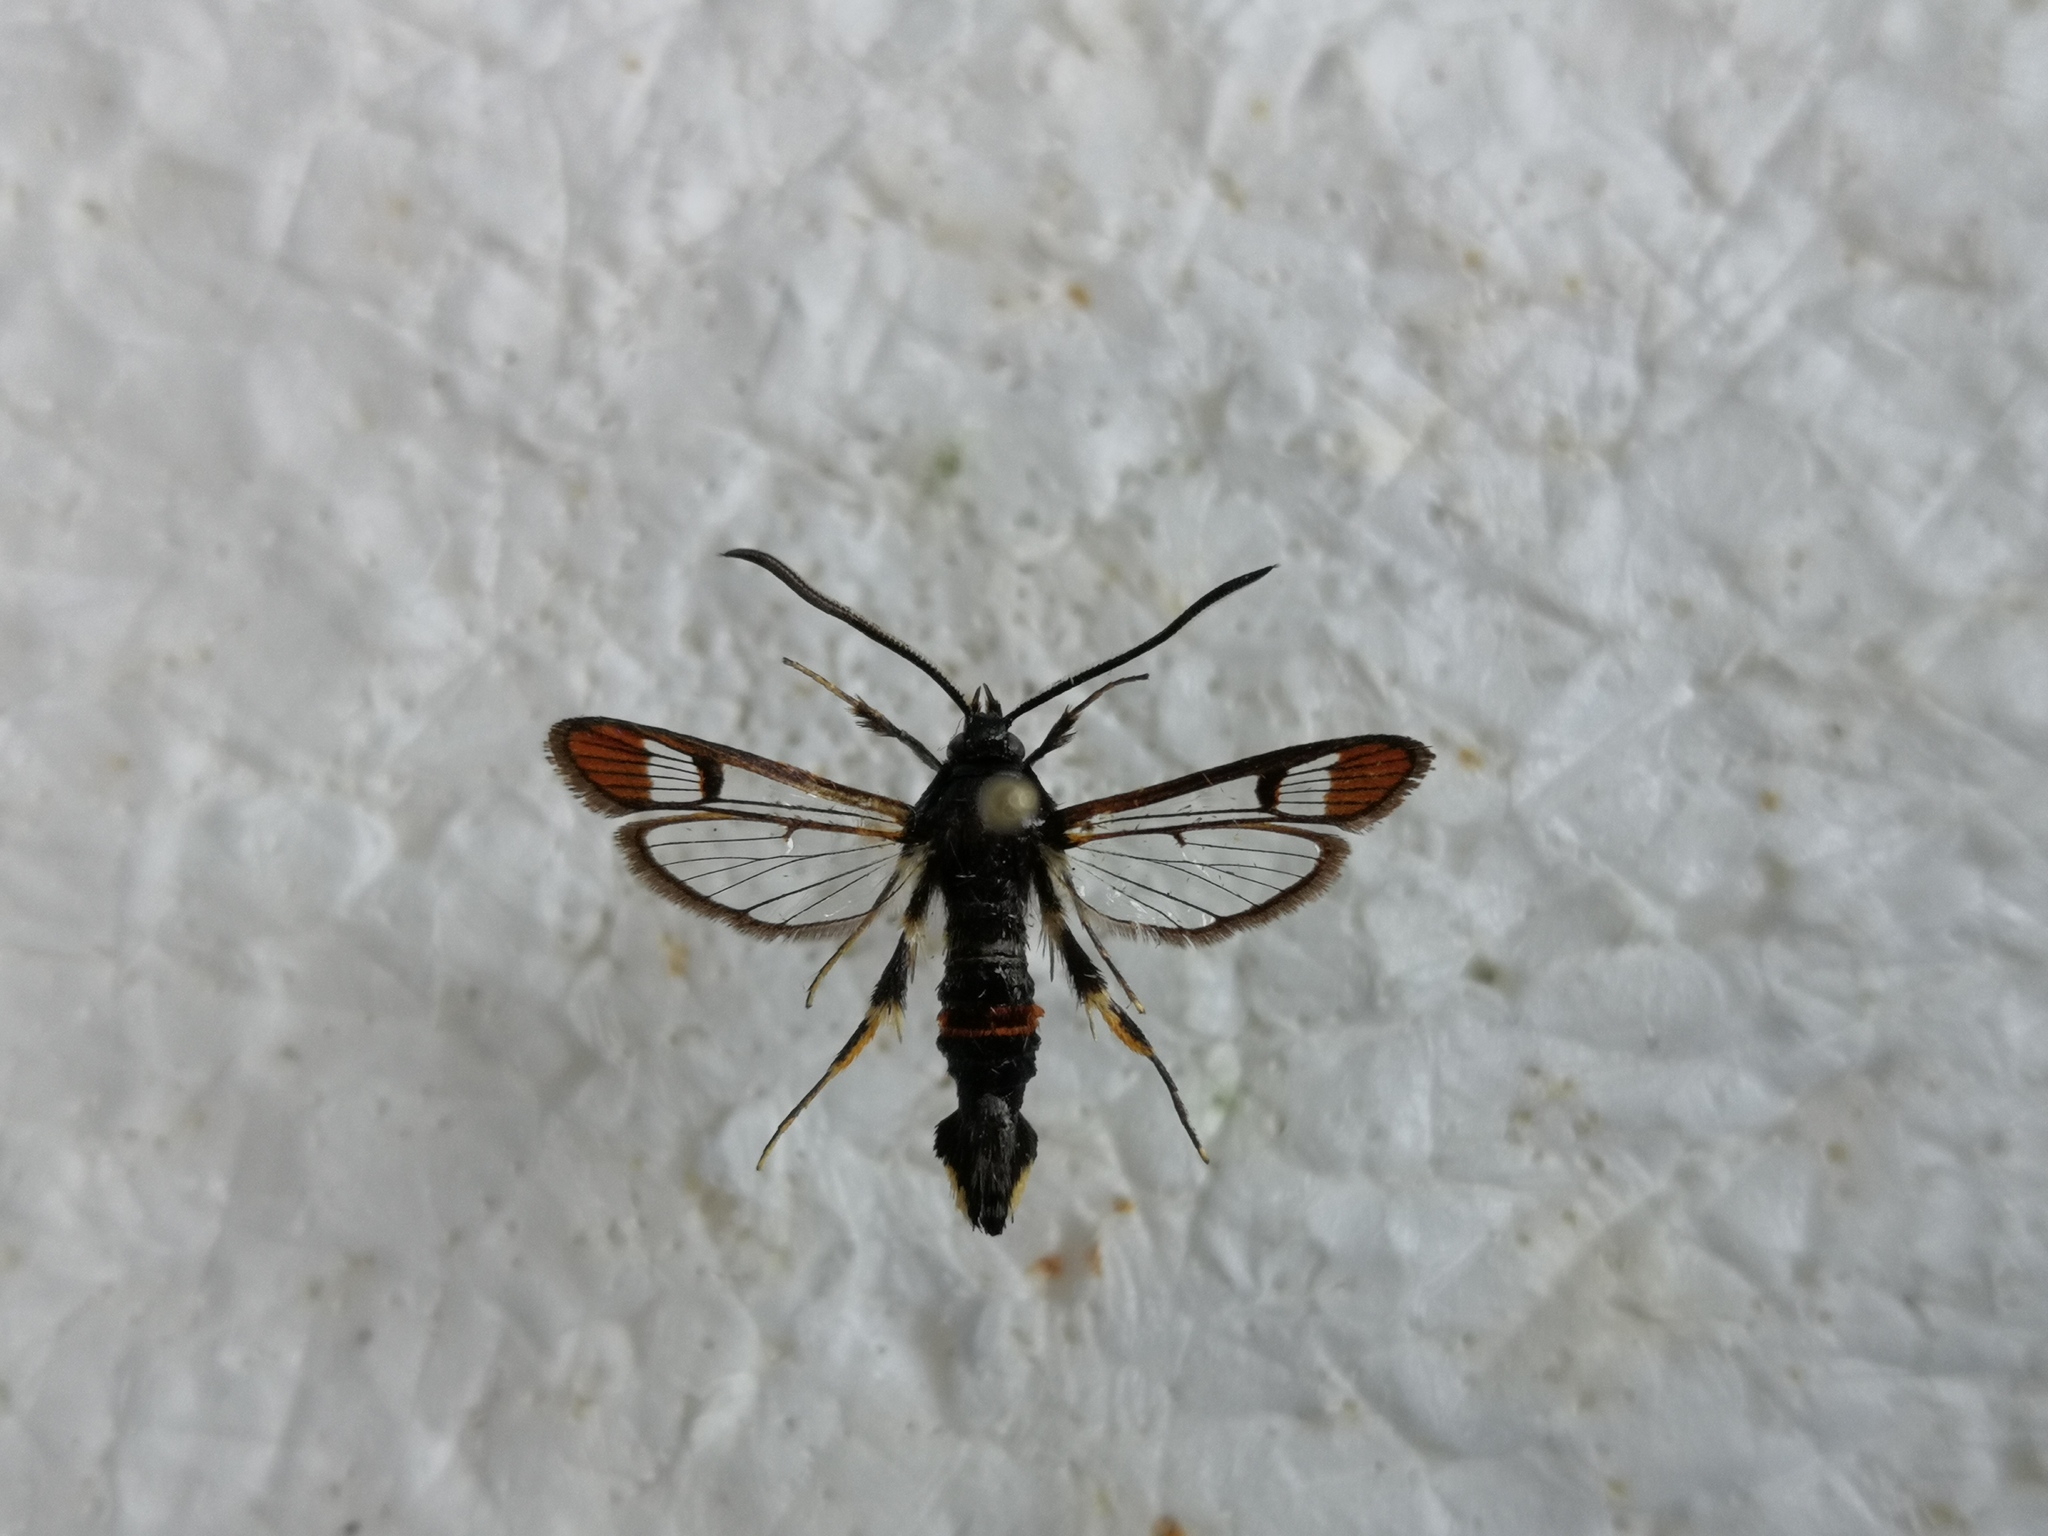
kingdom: Animalia
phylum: Arthropoda
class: Insecta
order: Lepidoptera
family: Sesiidae
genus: Synanthedon
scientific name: Synanthedon formicaeformis
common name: Red-tipped clearwing
